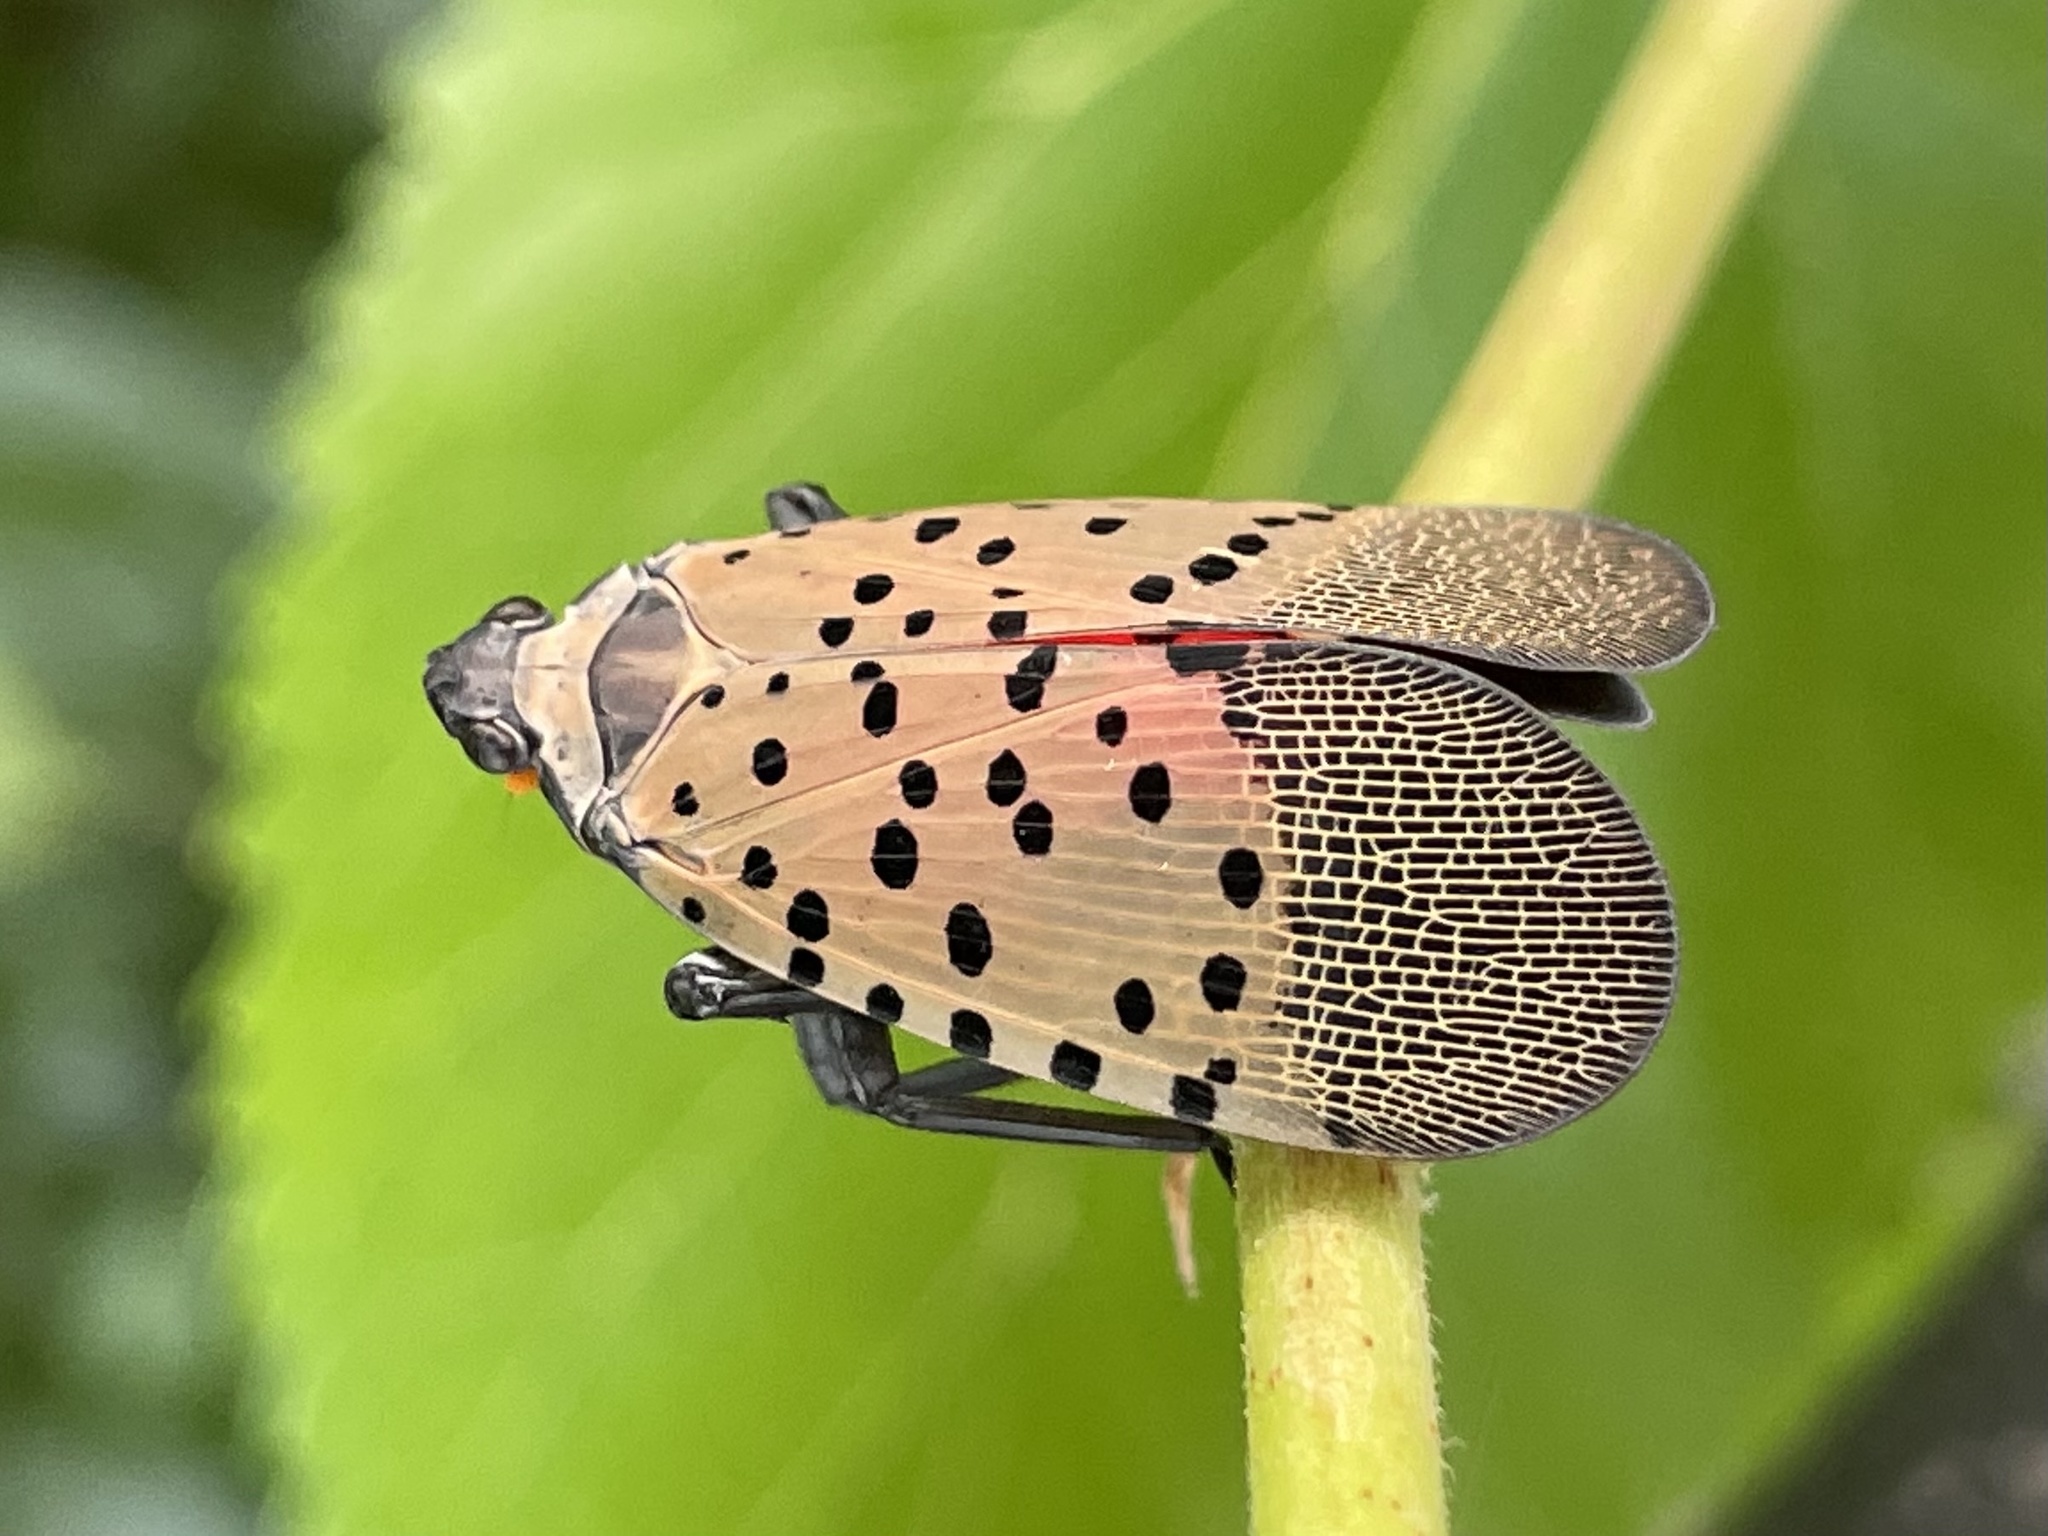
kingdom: Animalia
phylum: Arthropoda
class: Insecta
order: Hemiptera
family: Fulgoridae
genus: Lycorma
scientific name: Lycorma delicatula
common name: Spotted lanternfly
